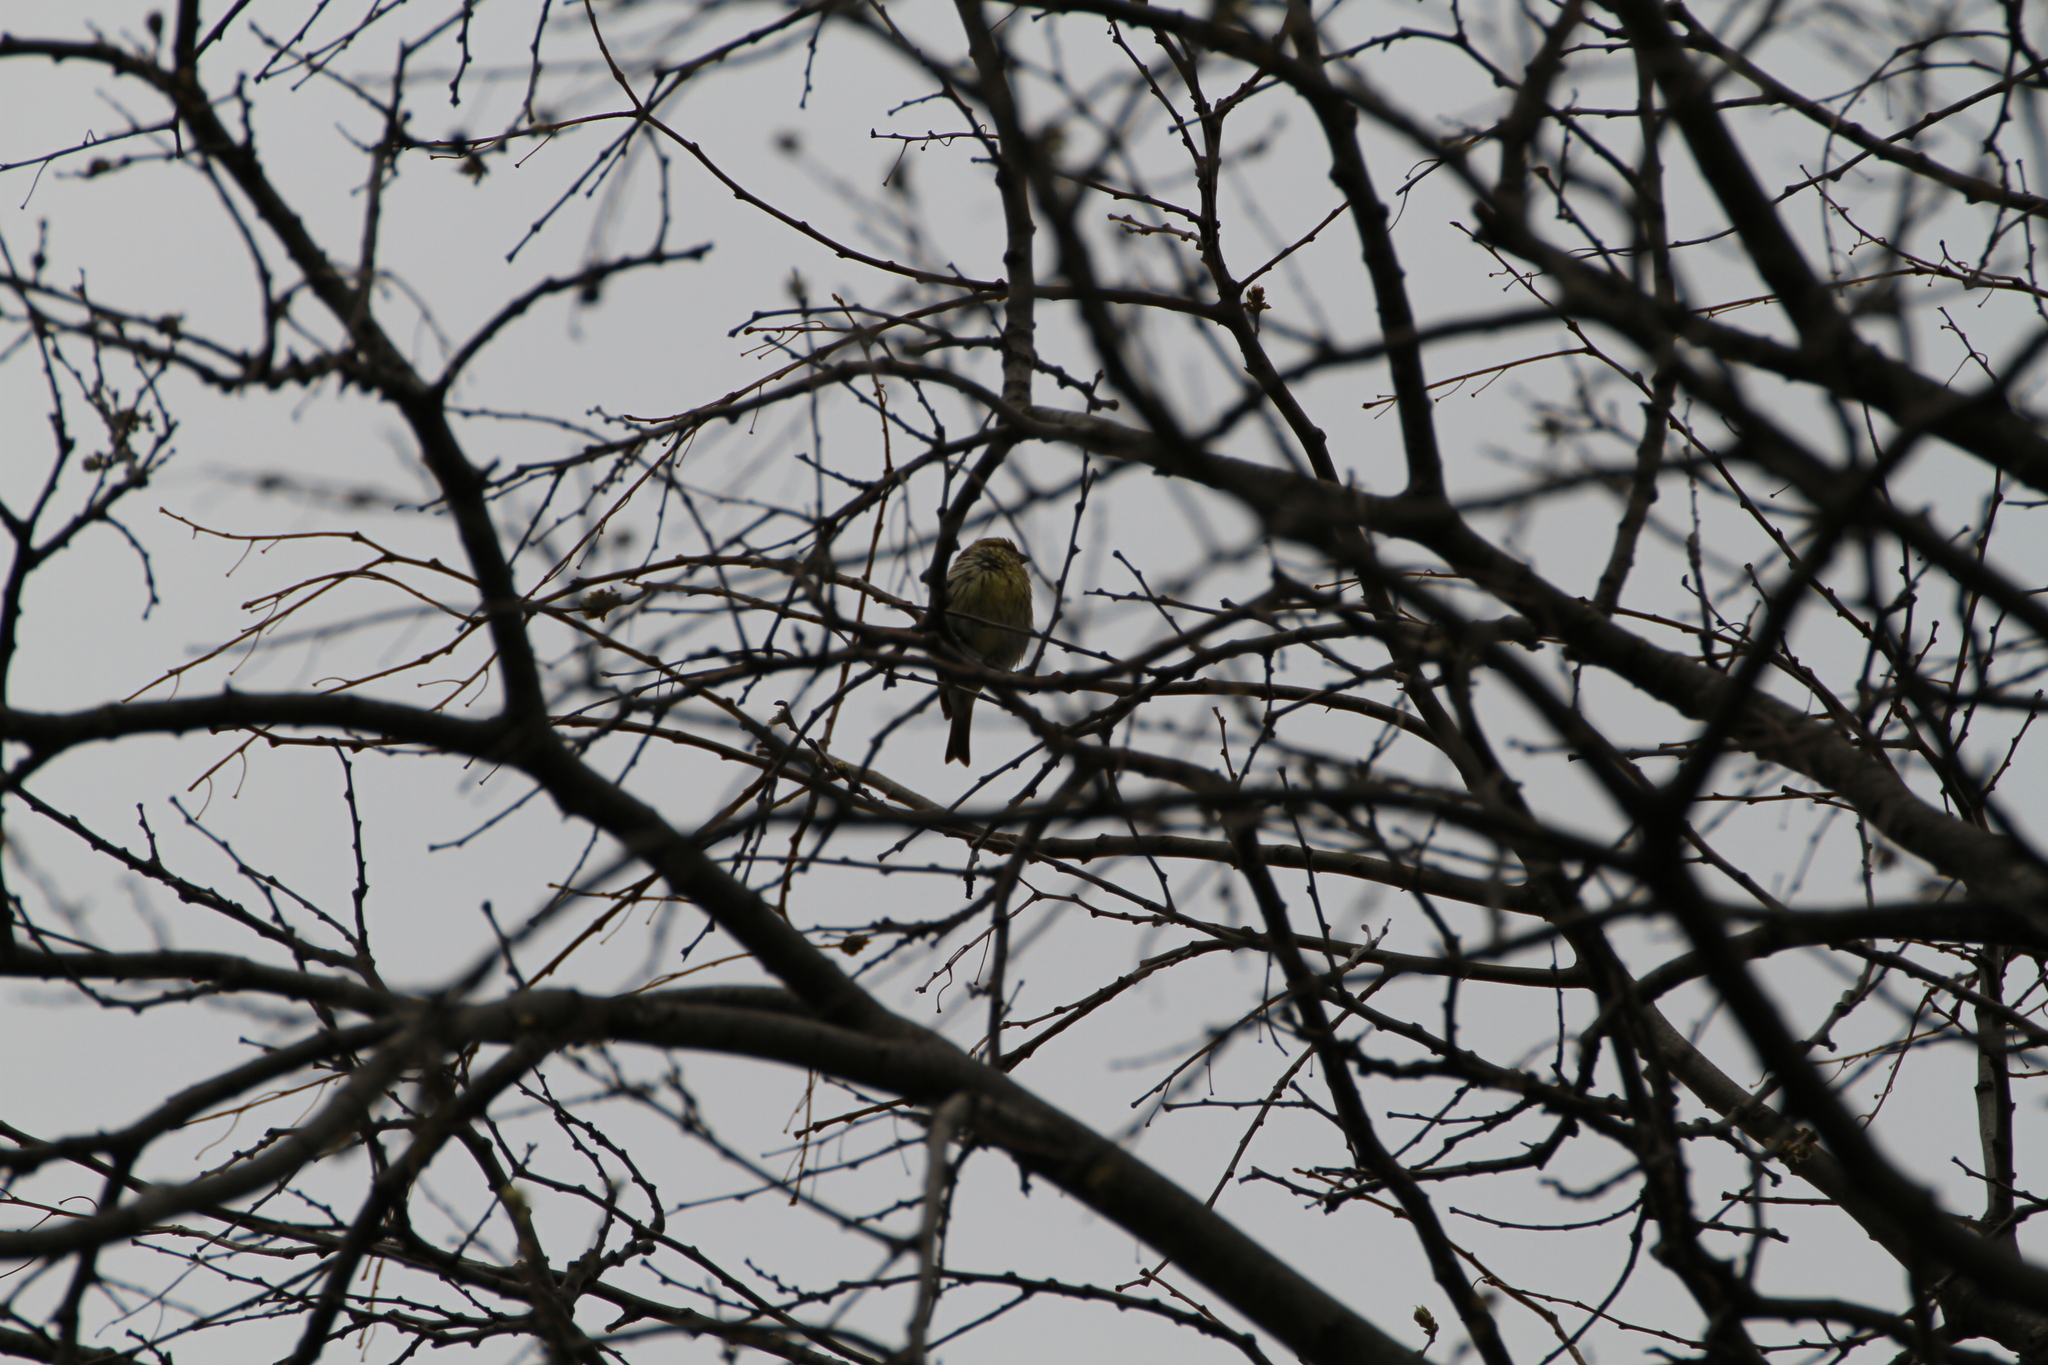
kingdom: Animalia
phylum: Chordata
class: Aves
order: Passeriformes
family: Fringillidae
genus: Serinus
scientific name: Serinus serinus
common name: European serin
